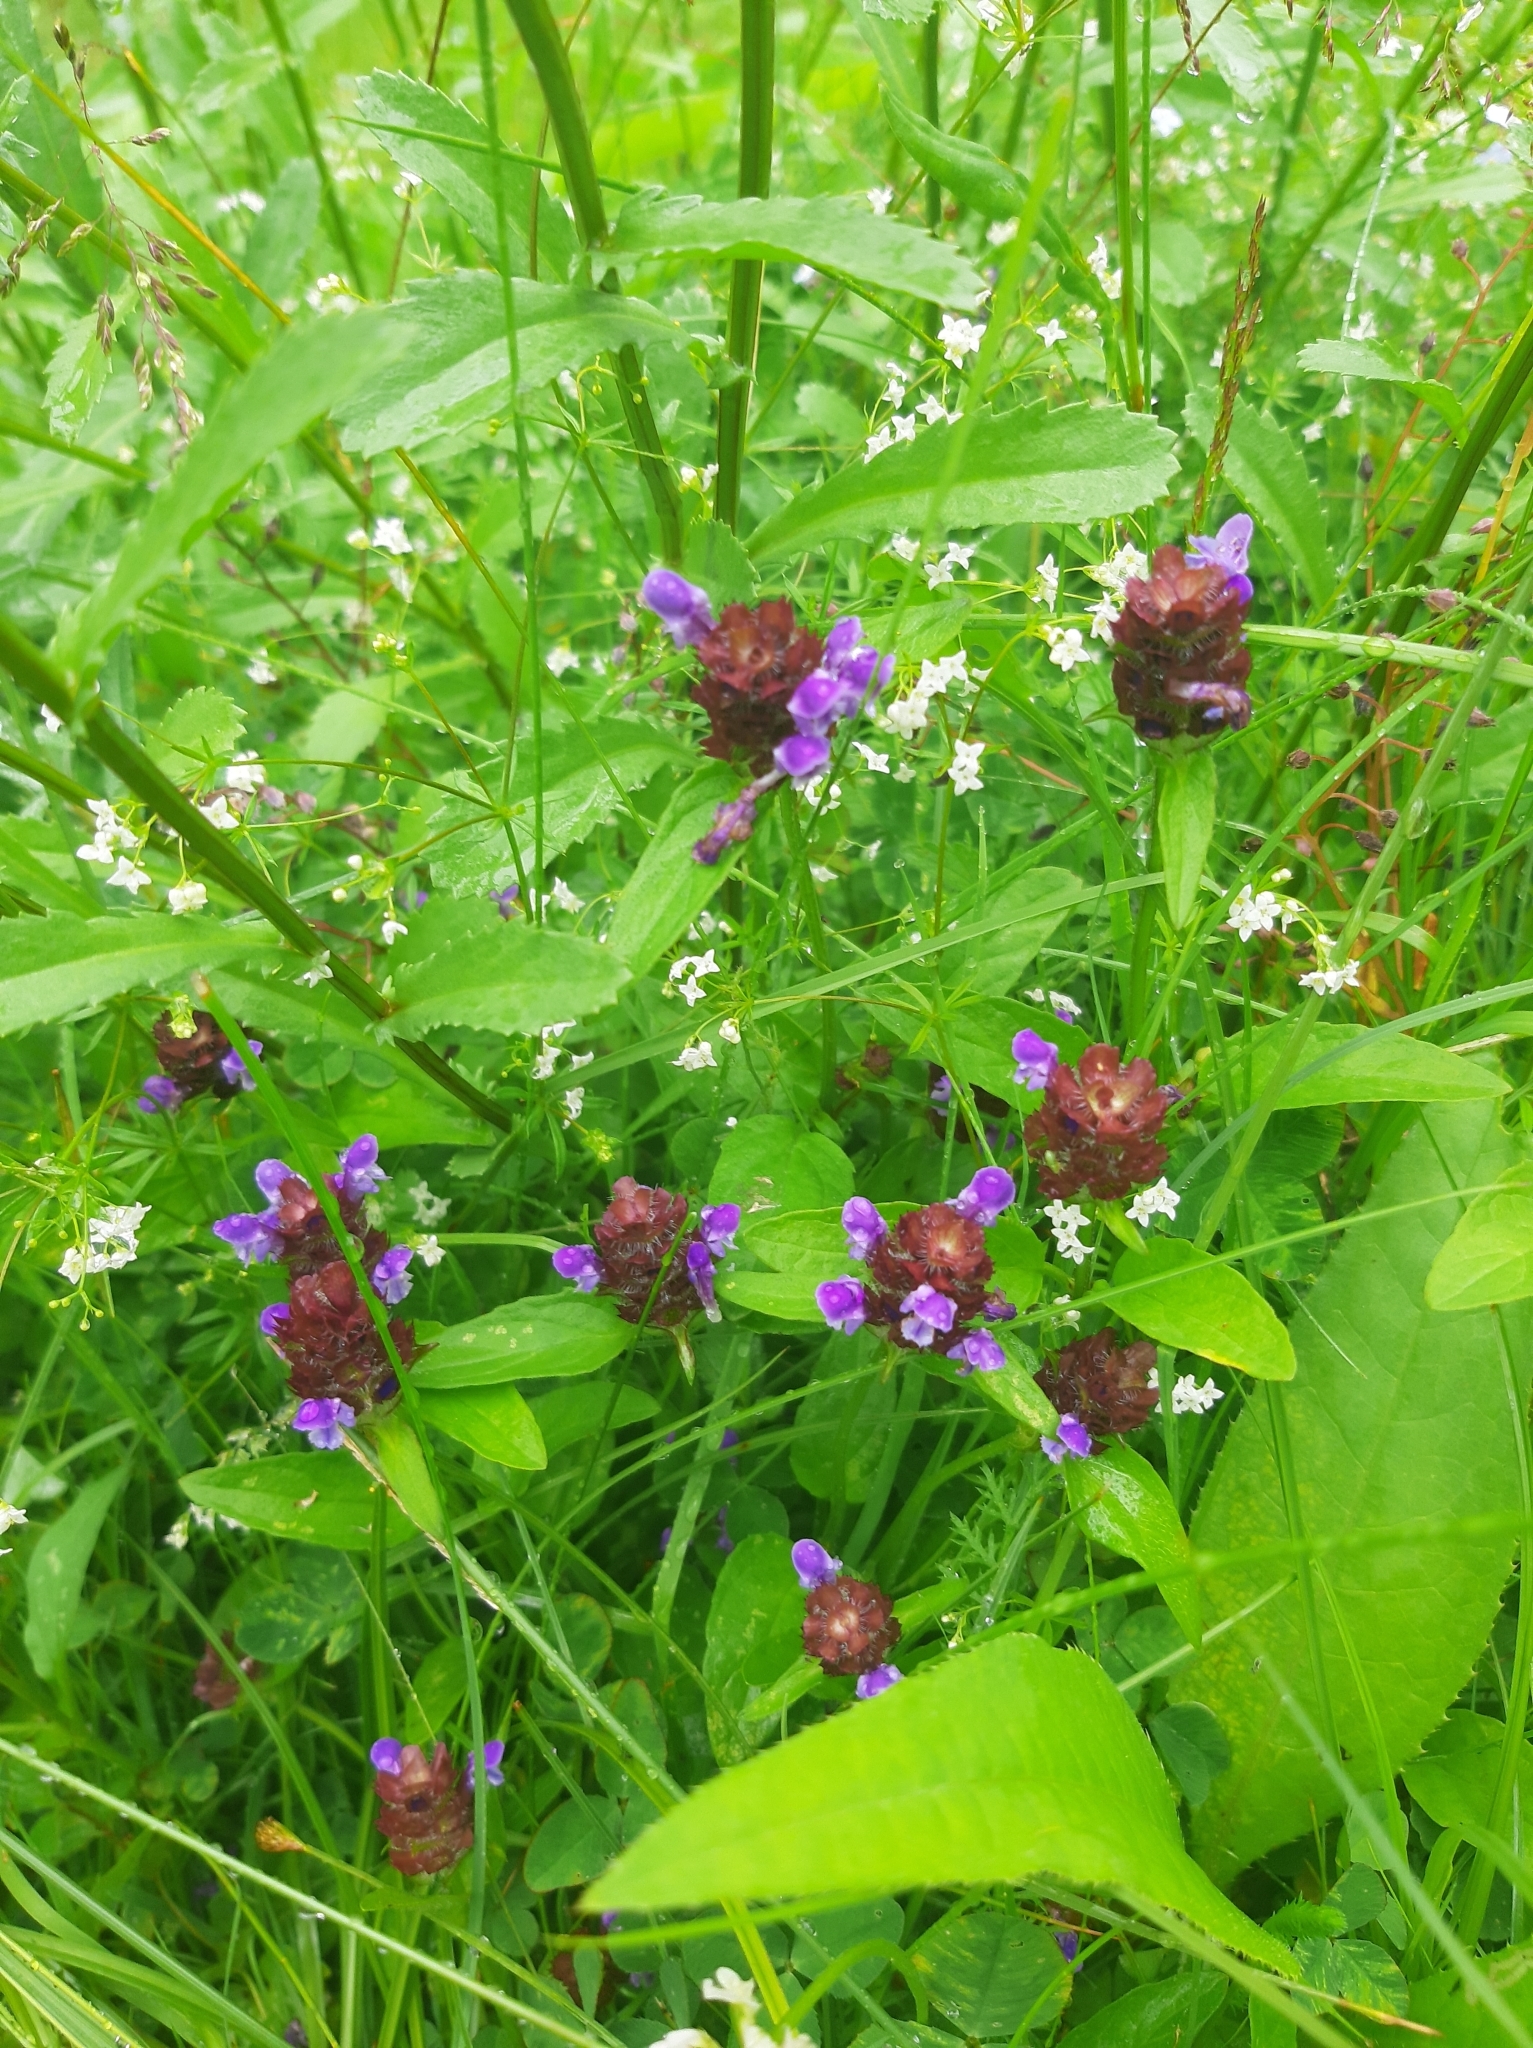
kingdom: Plantae
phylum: Tracheophyta
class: Magnoliopsida
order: Lamiales
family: Lamiaceae
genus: Prunella
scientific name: Prunella vulgaris
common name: Heal-all
